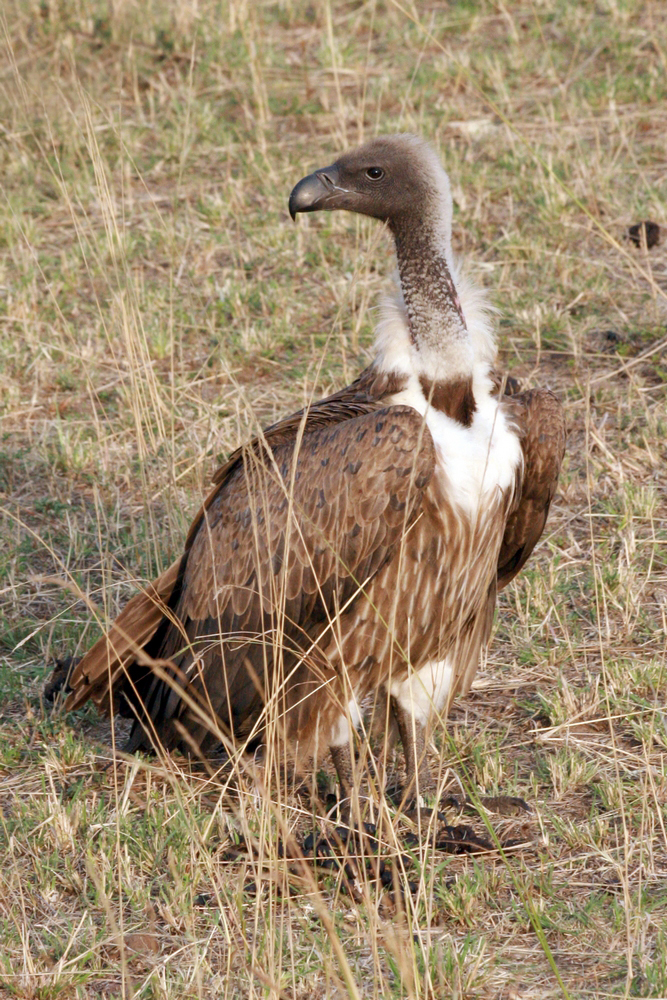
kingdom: Animalia
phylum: Chordata
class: Aves
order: Accipitriformes
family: Accipitridae
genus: Gyps
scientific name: Gyps africanus
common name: White-backed vulture
